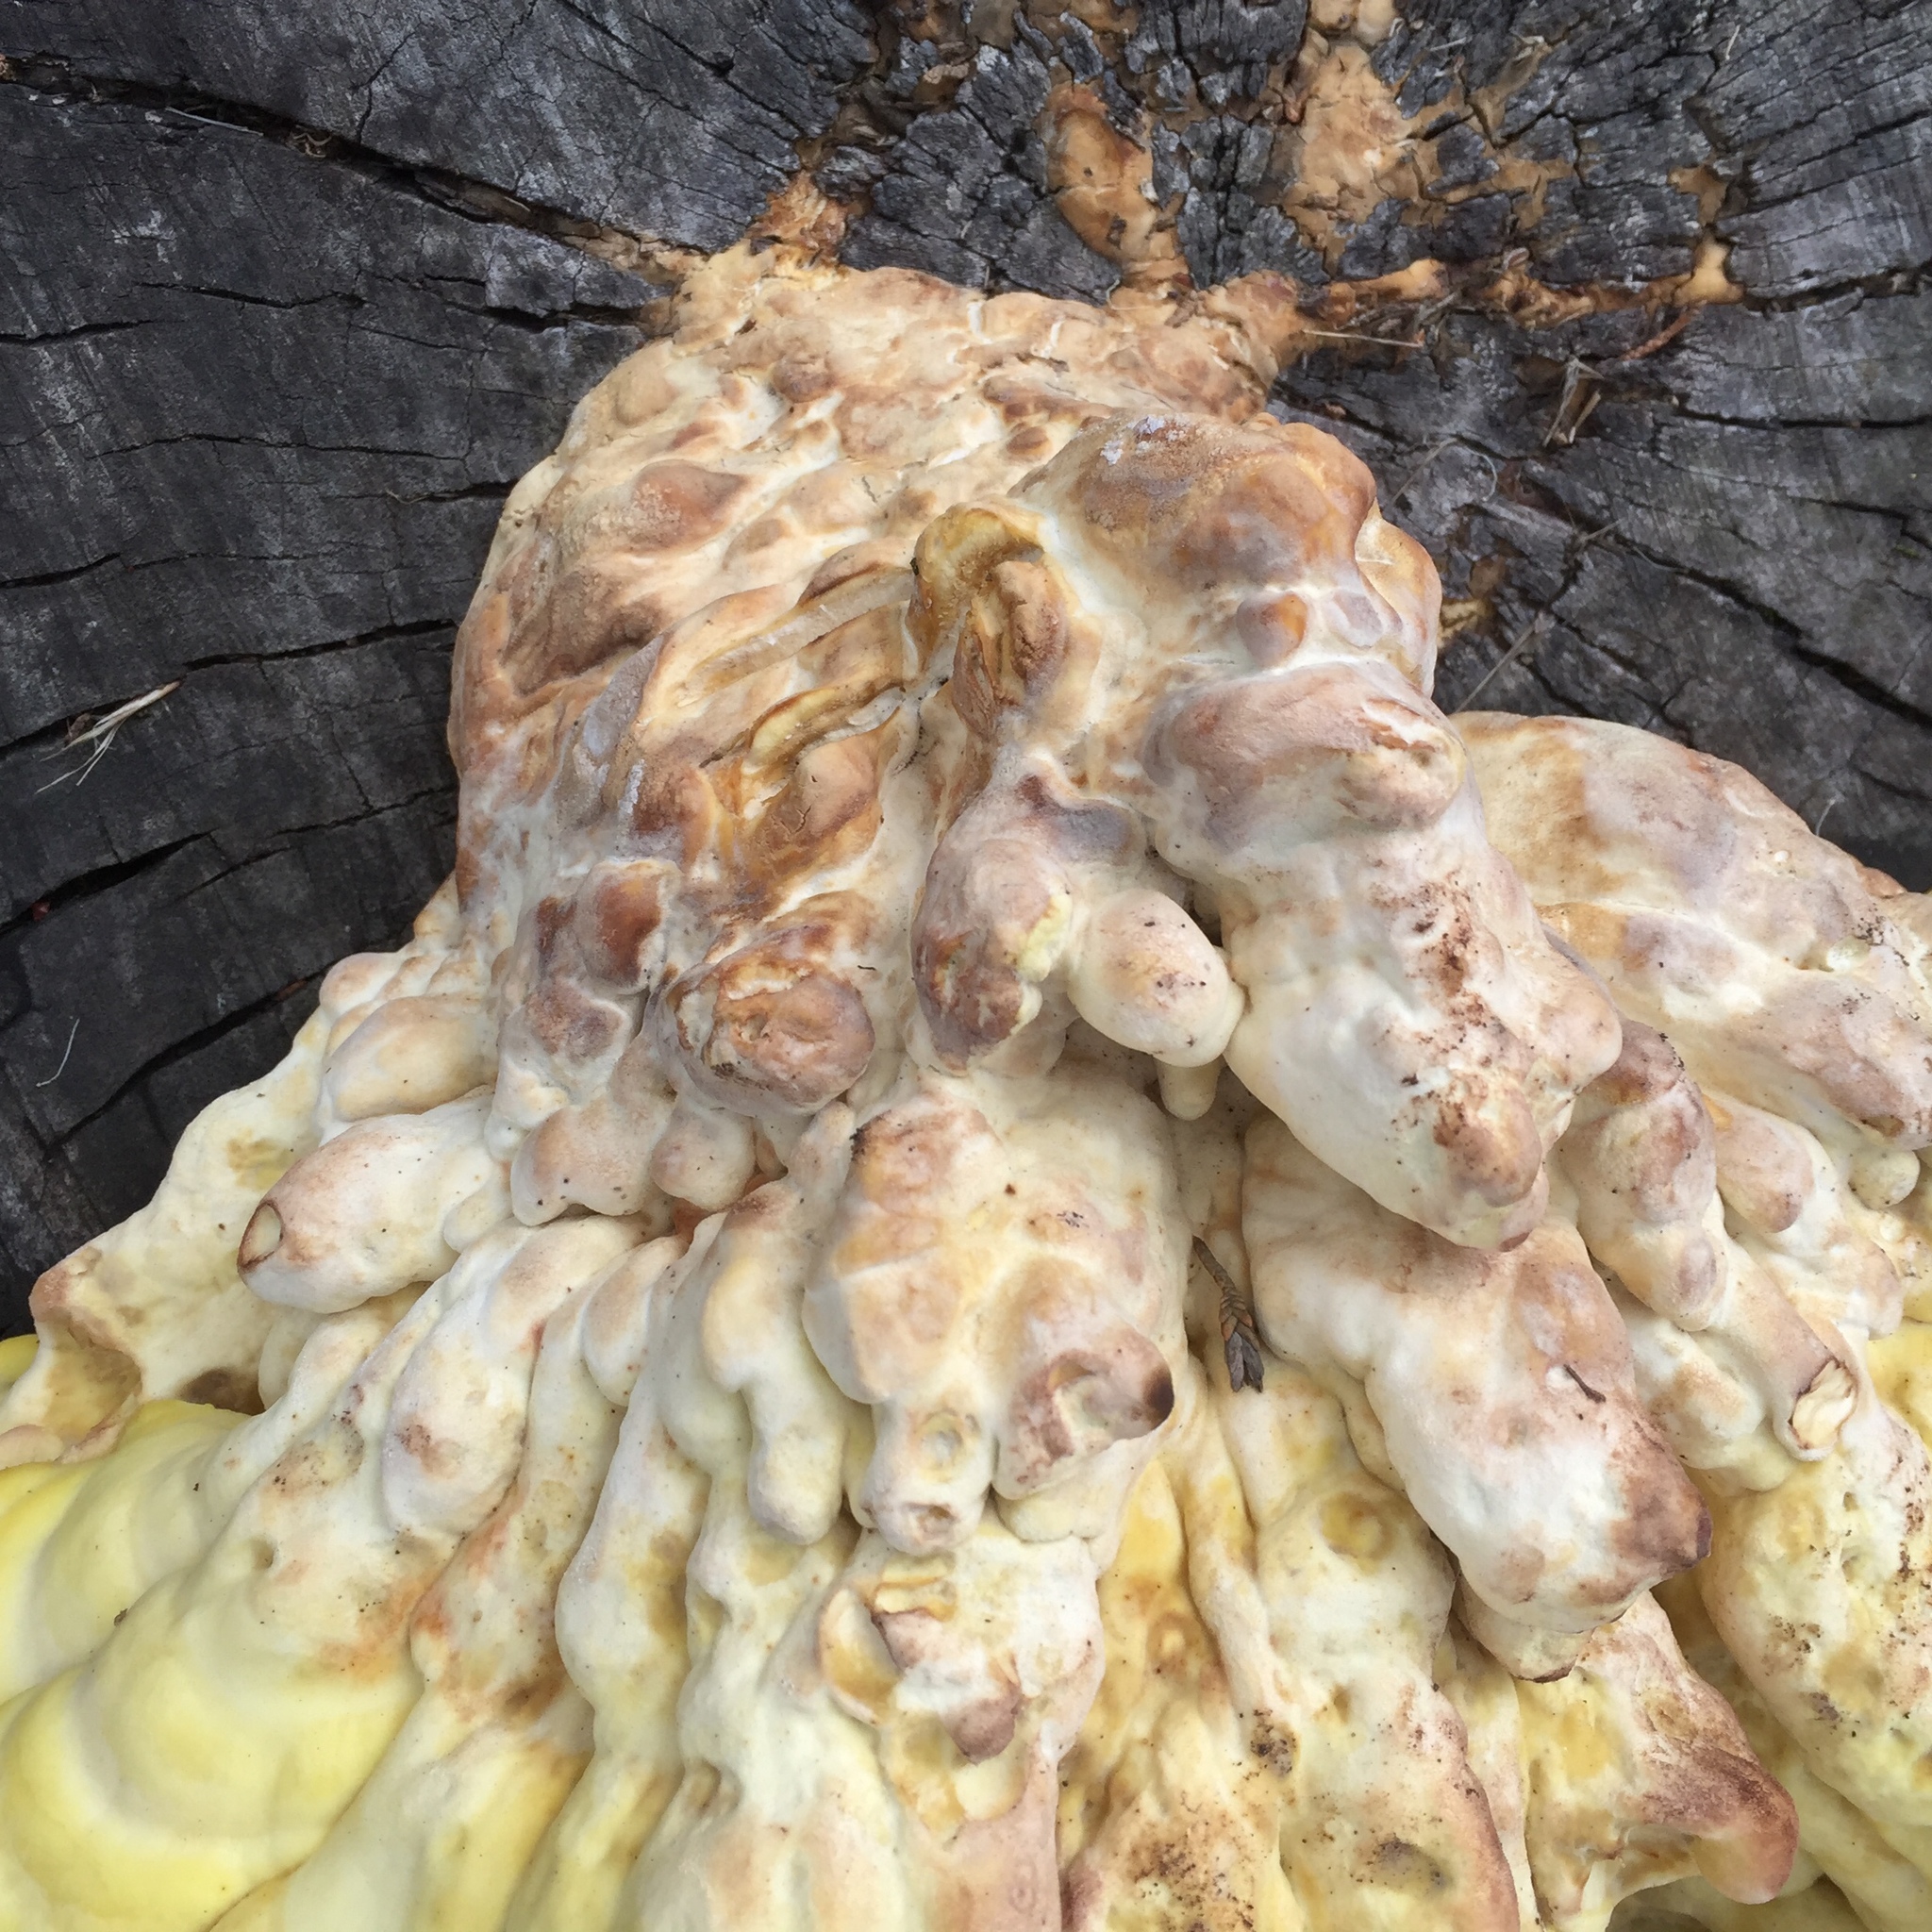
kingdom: Fungi
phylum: Basidiomycota
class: Agaricomycetes
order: Polyporales
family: Laetiporaceae
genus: Laetiporus
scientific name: Laetiporus gilbertsonii
